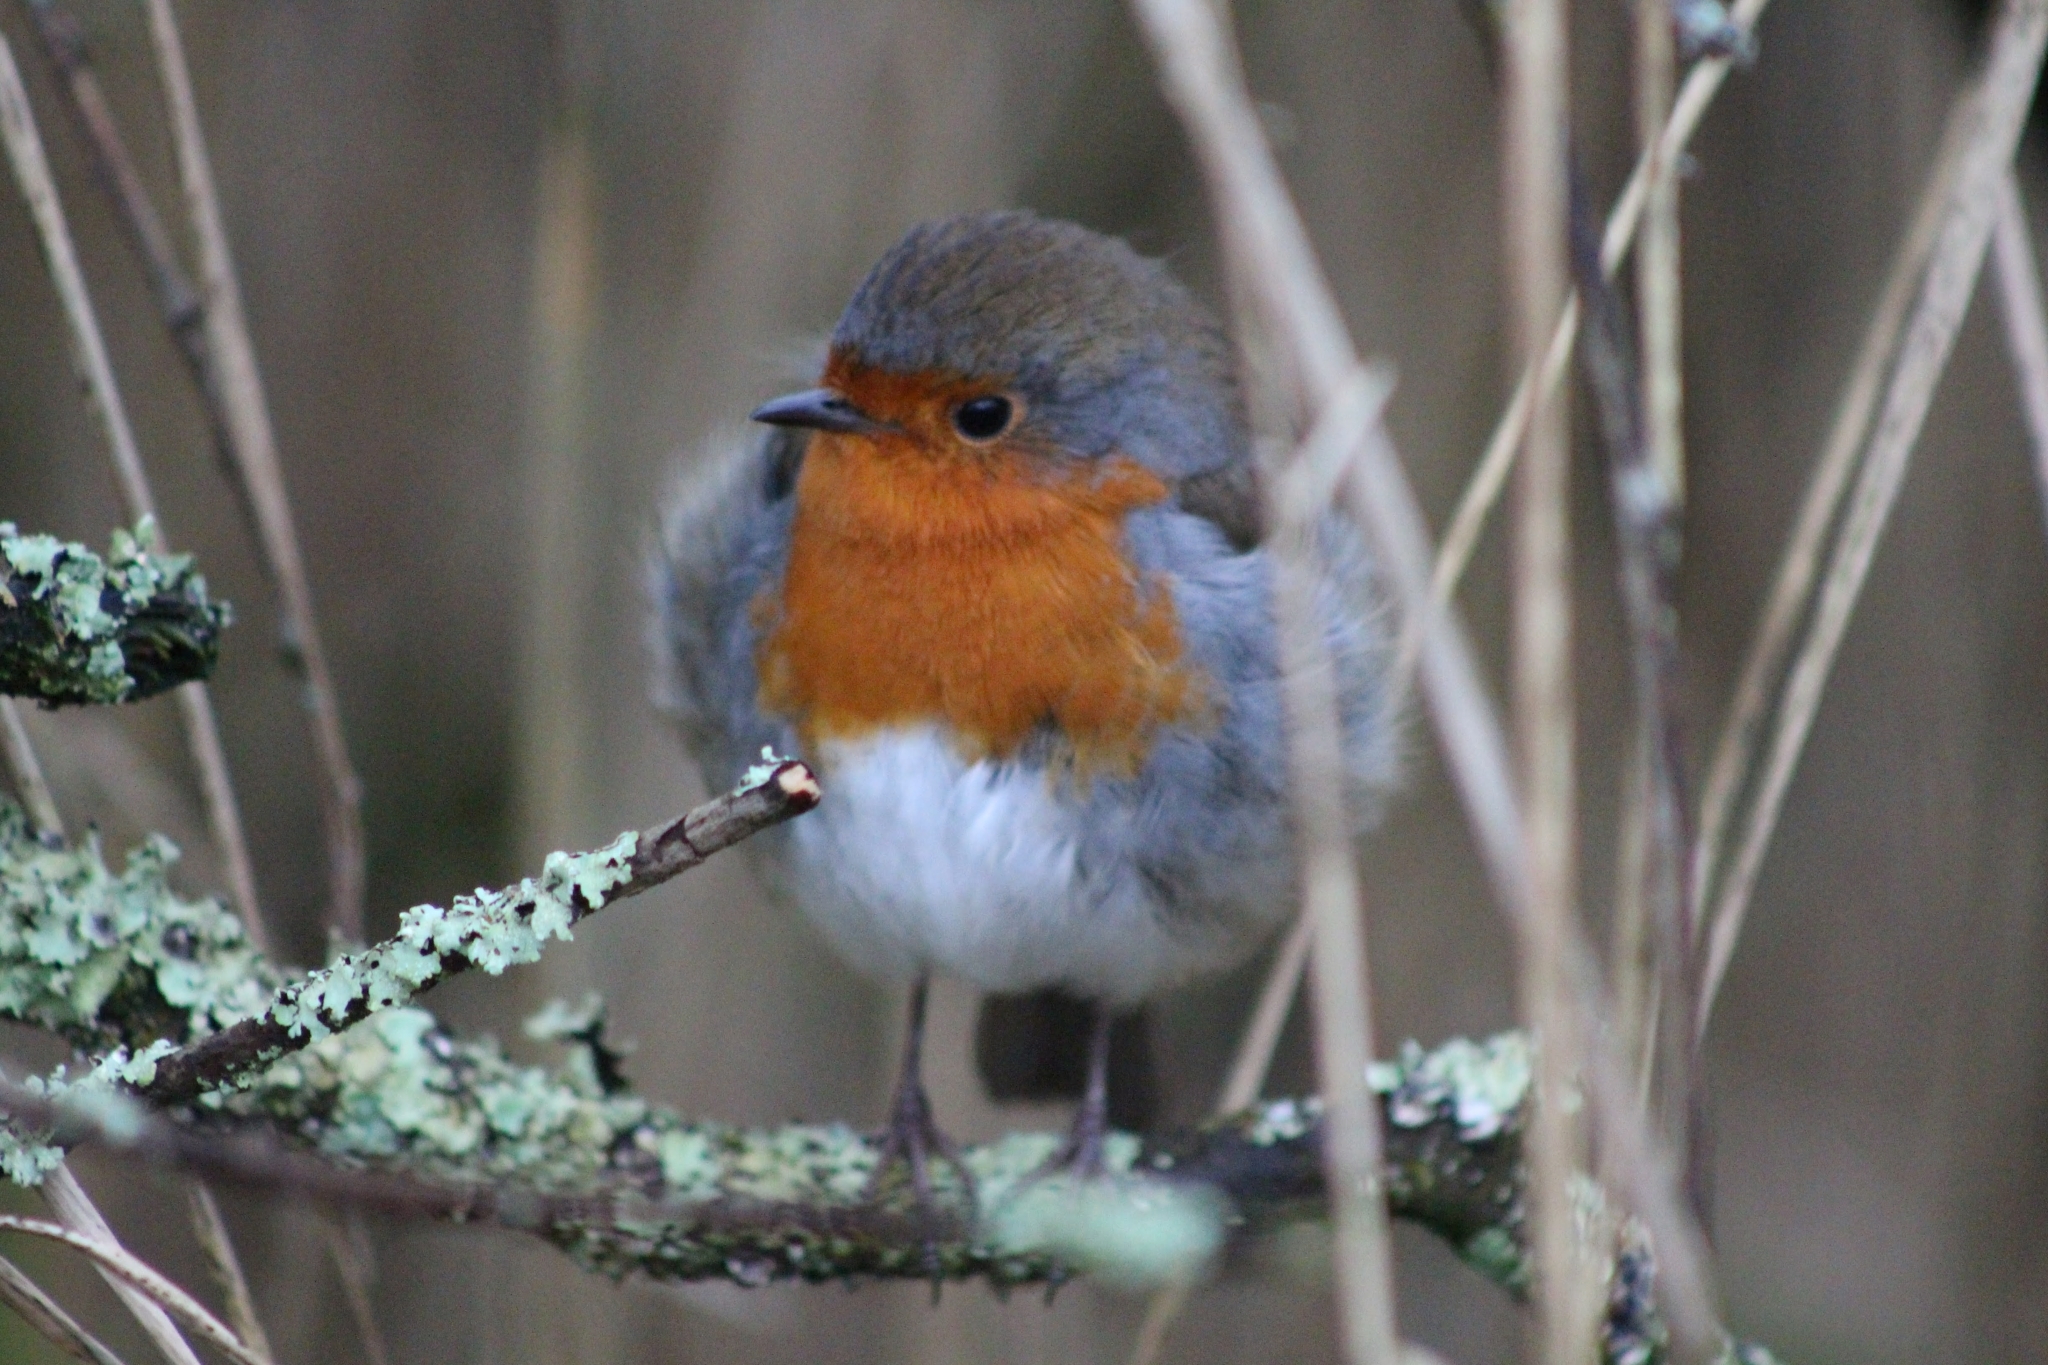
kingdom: Animalia
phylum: Chordata
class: Aves
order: Passeriformes
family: Muscicapidae
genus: Erithacus
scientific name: Erithacus rubecula
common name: European robin
